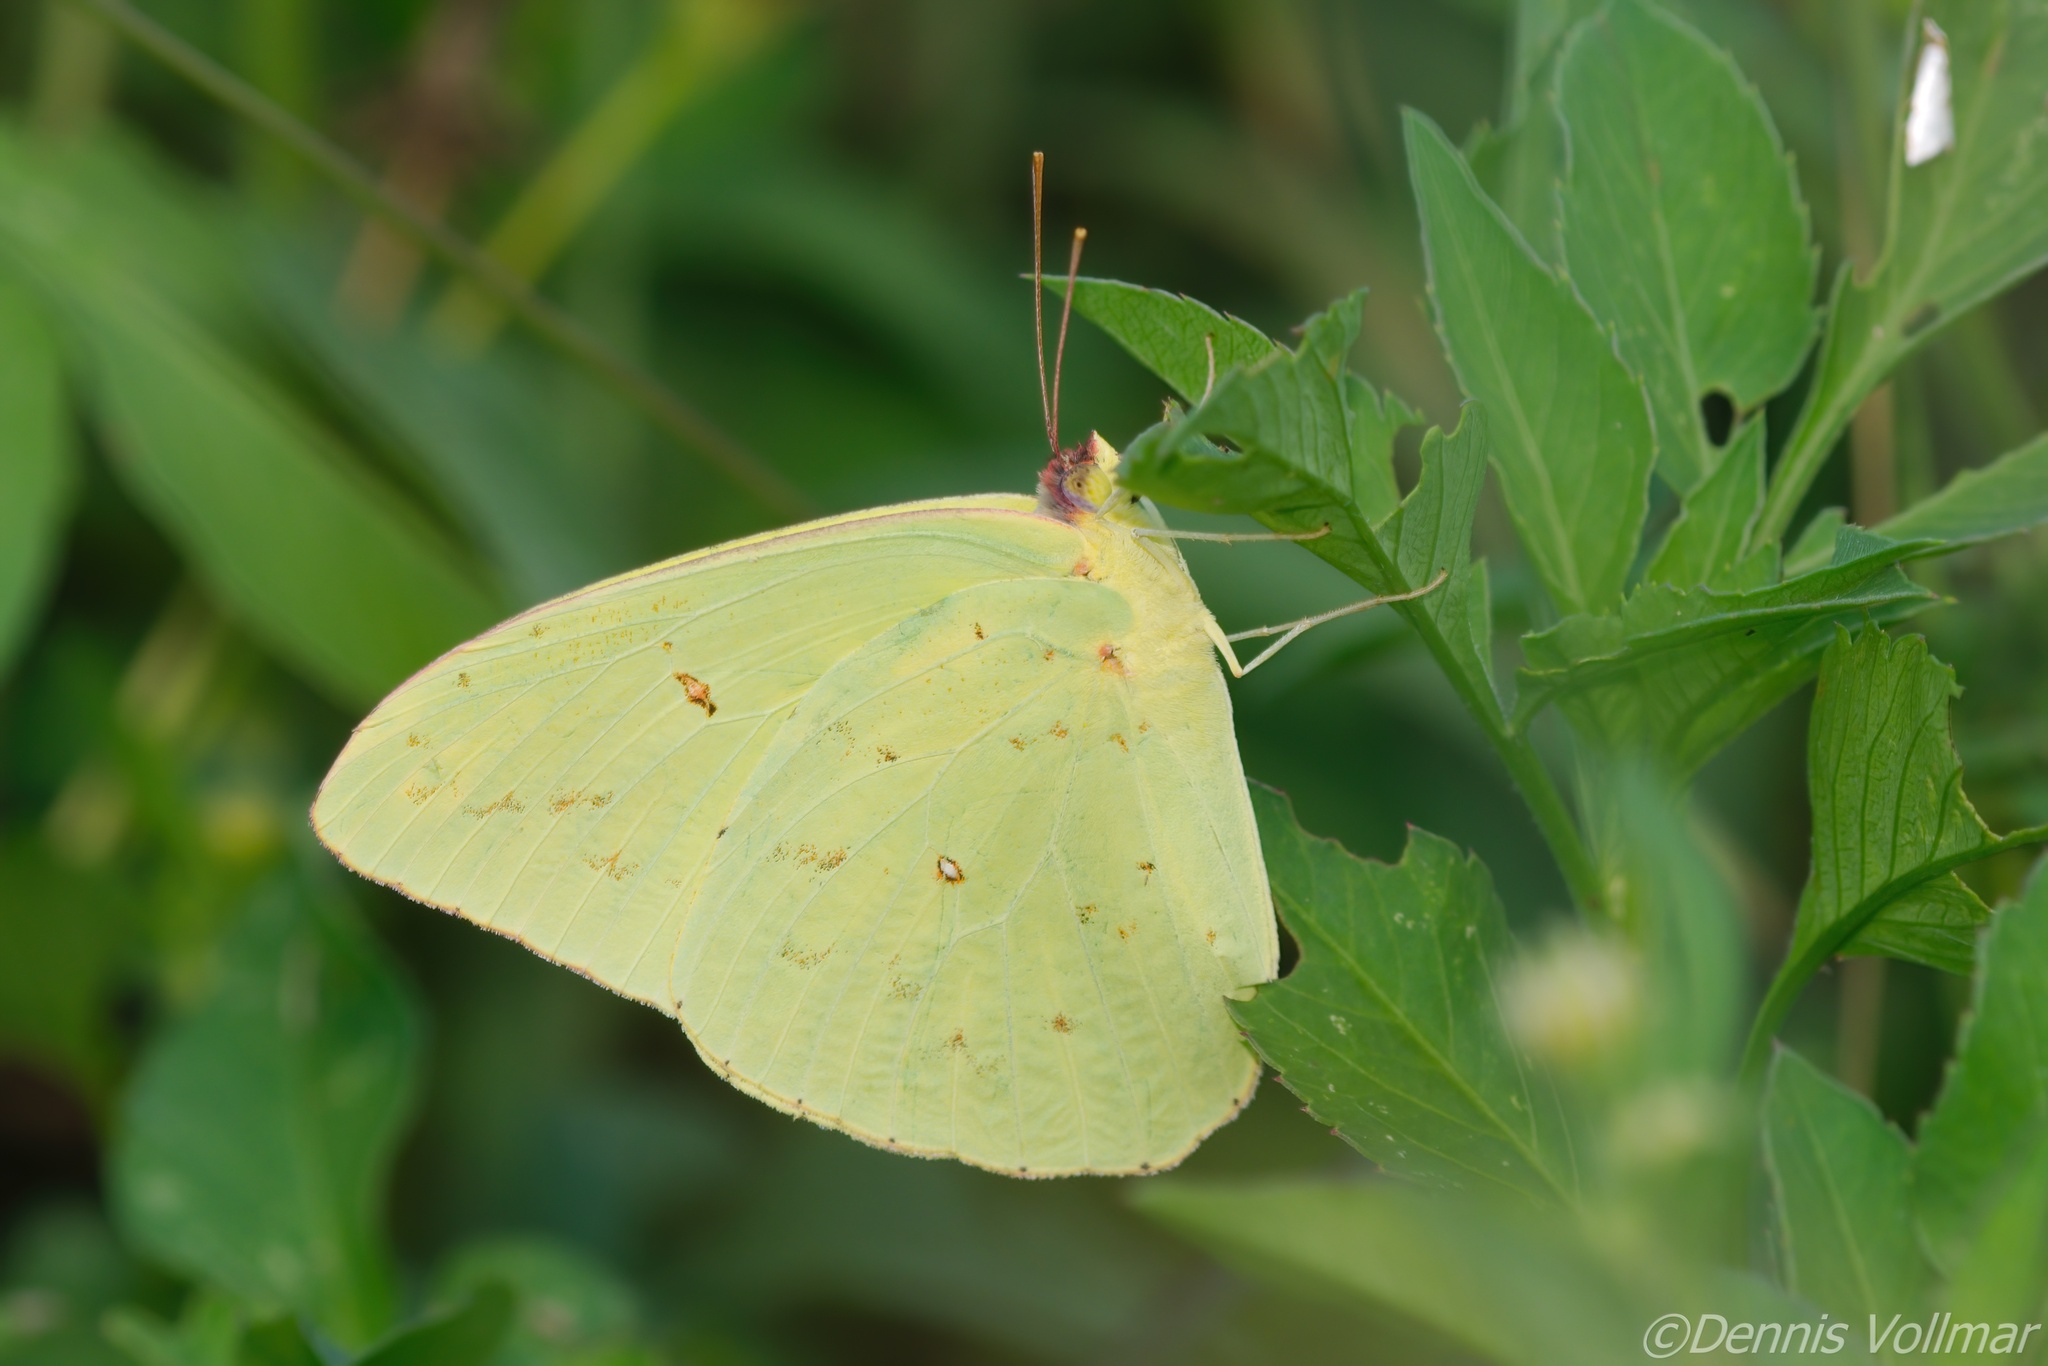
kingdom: Animalia
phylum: Arthropoda
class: Insecta
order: Lepidoptera
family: Pieridae
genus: Phoebis
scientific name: Phoebis sennae
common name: Cloudless sulphur
